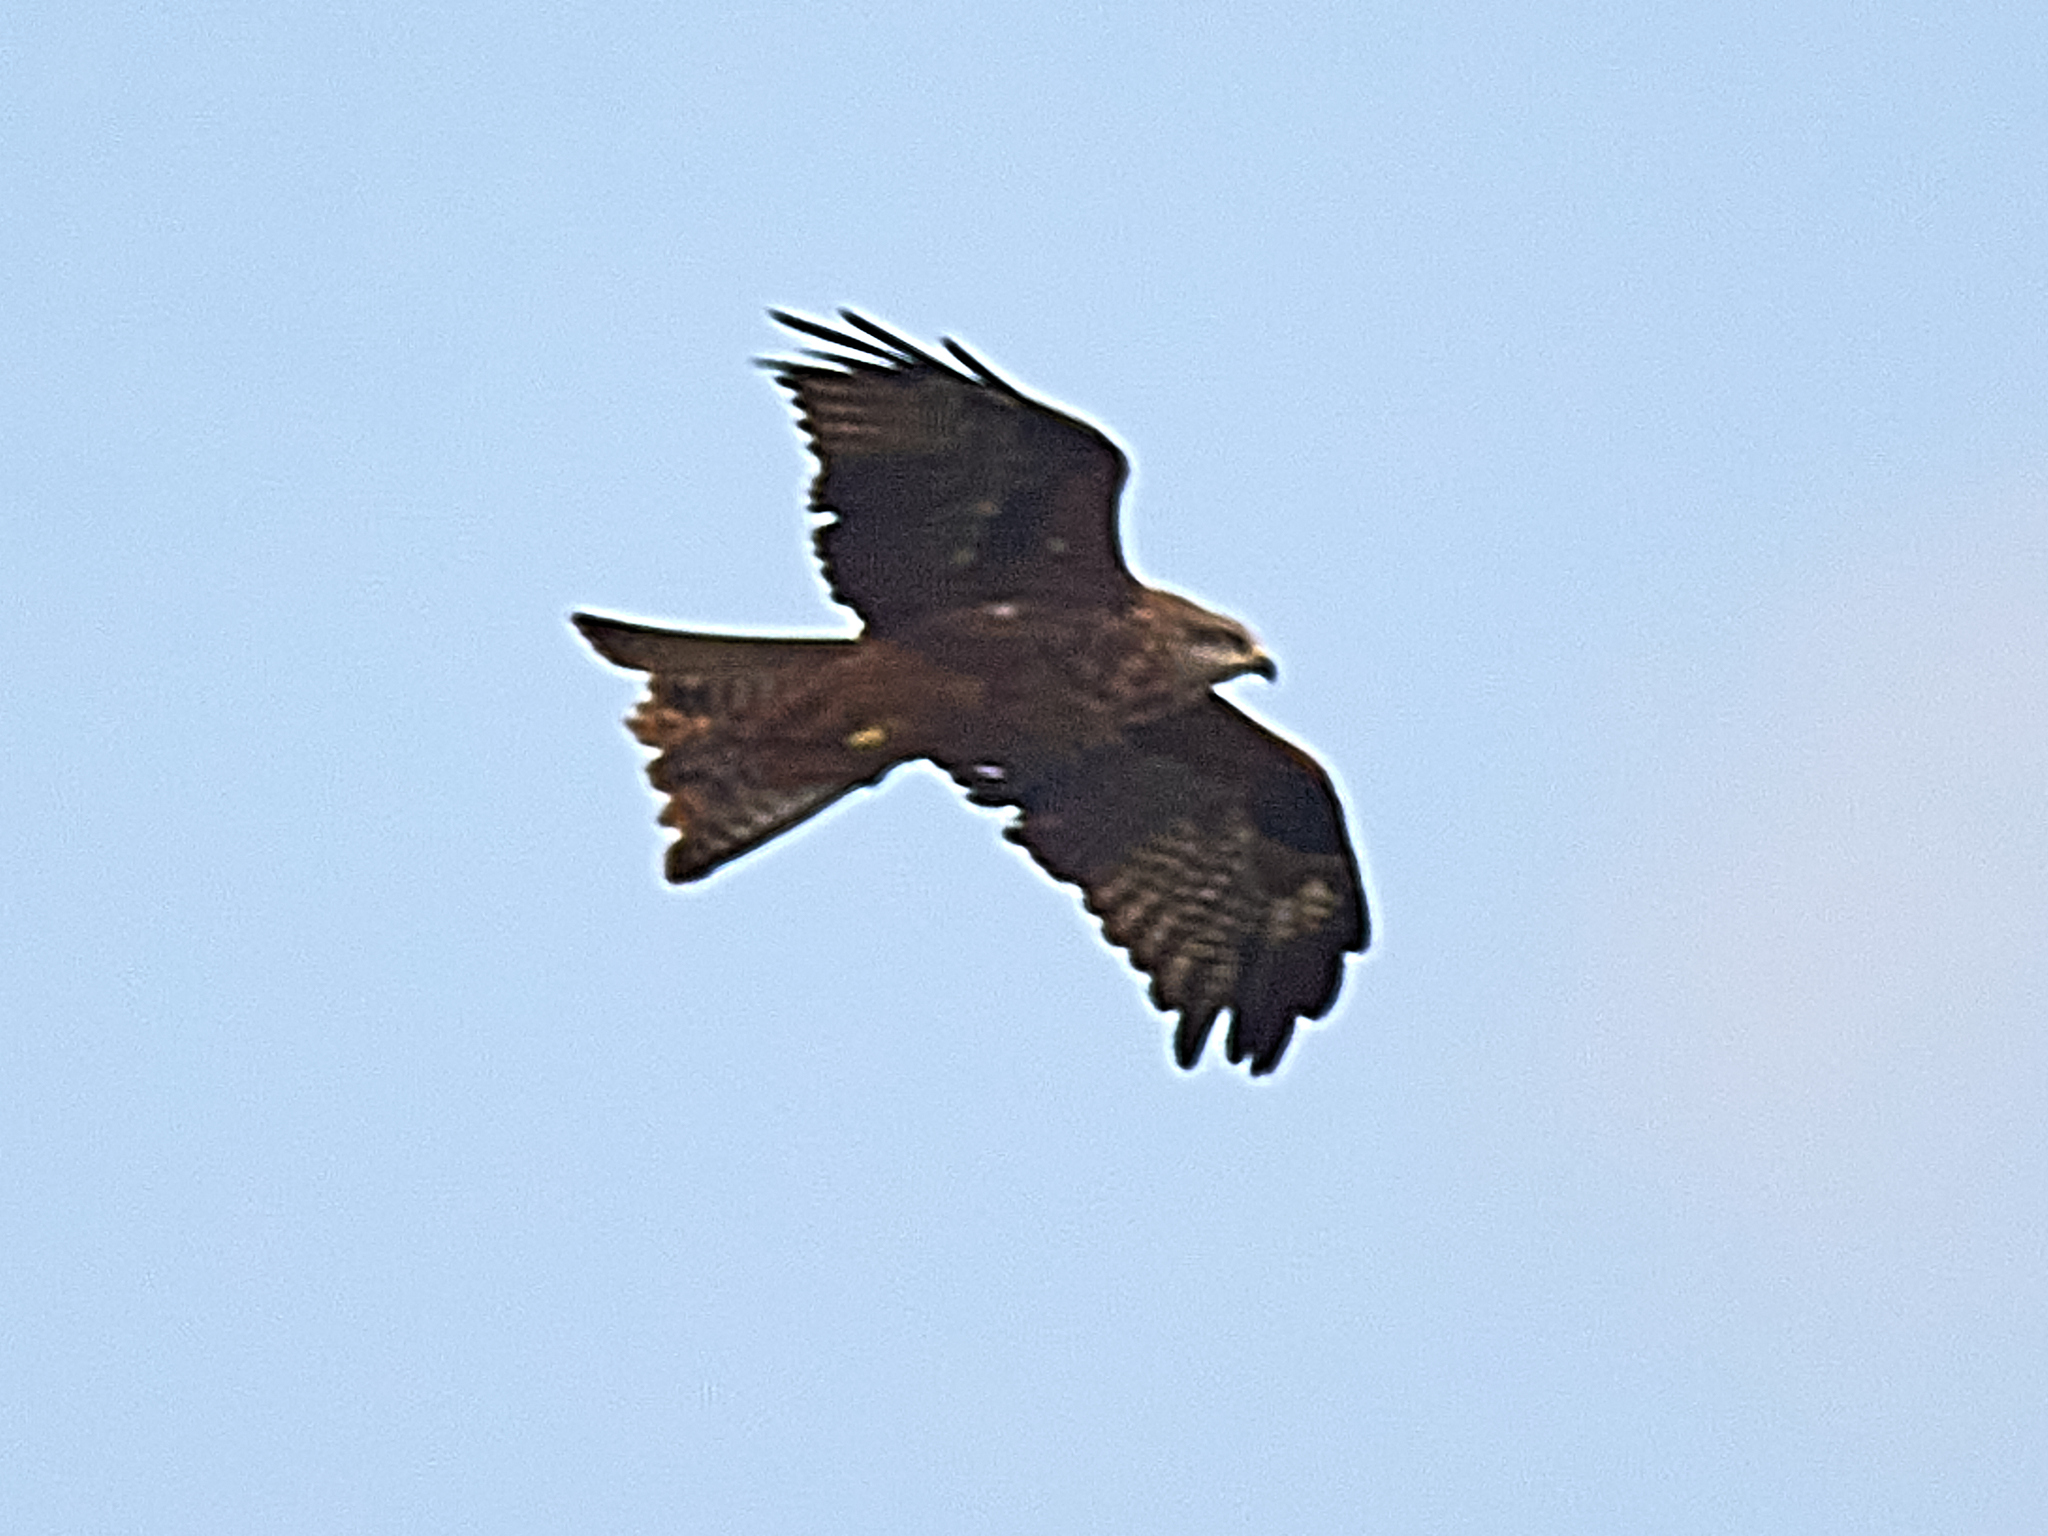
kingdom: Animalia
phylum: Chordata
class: Aves
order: Accipitriformes
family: Accipitridae
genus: Milvus
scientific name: Milvus migrans
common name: Black kite
